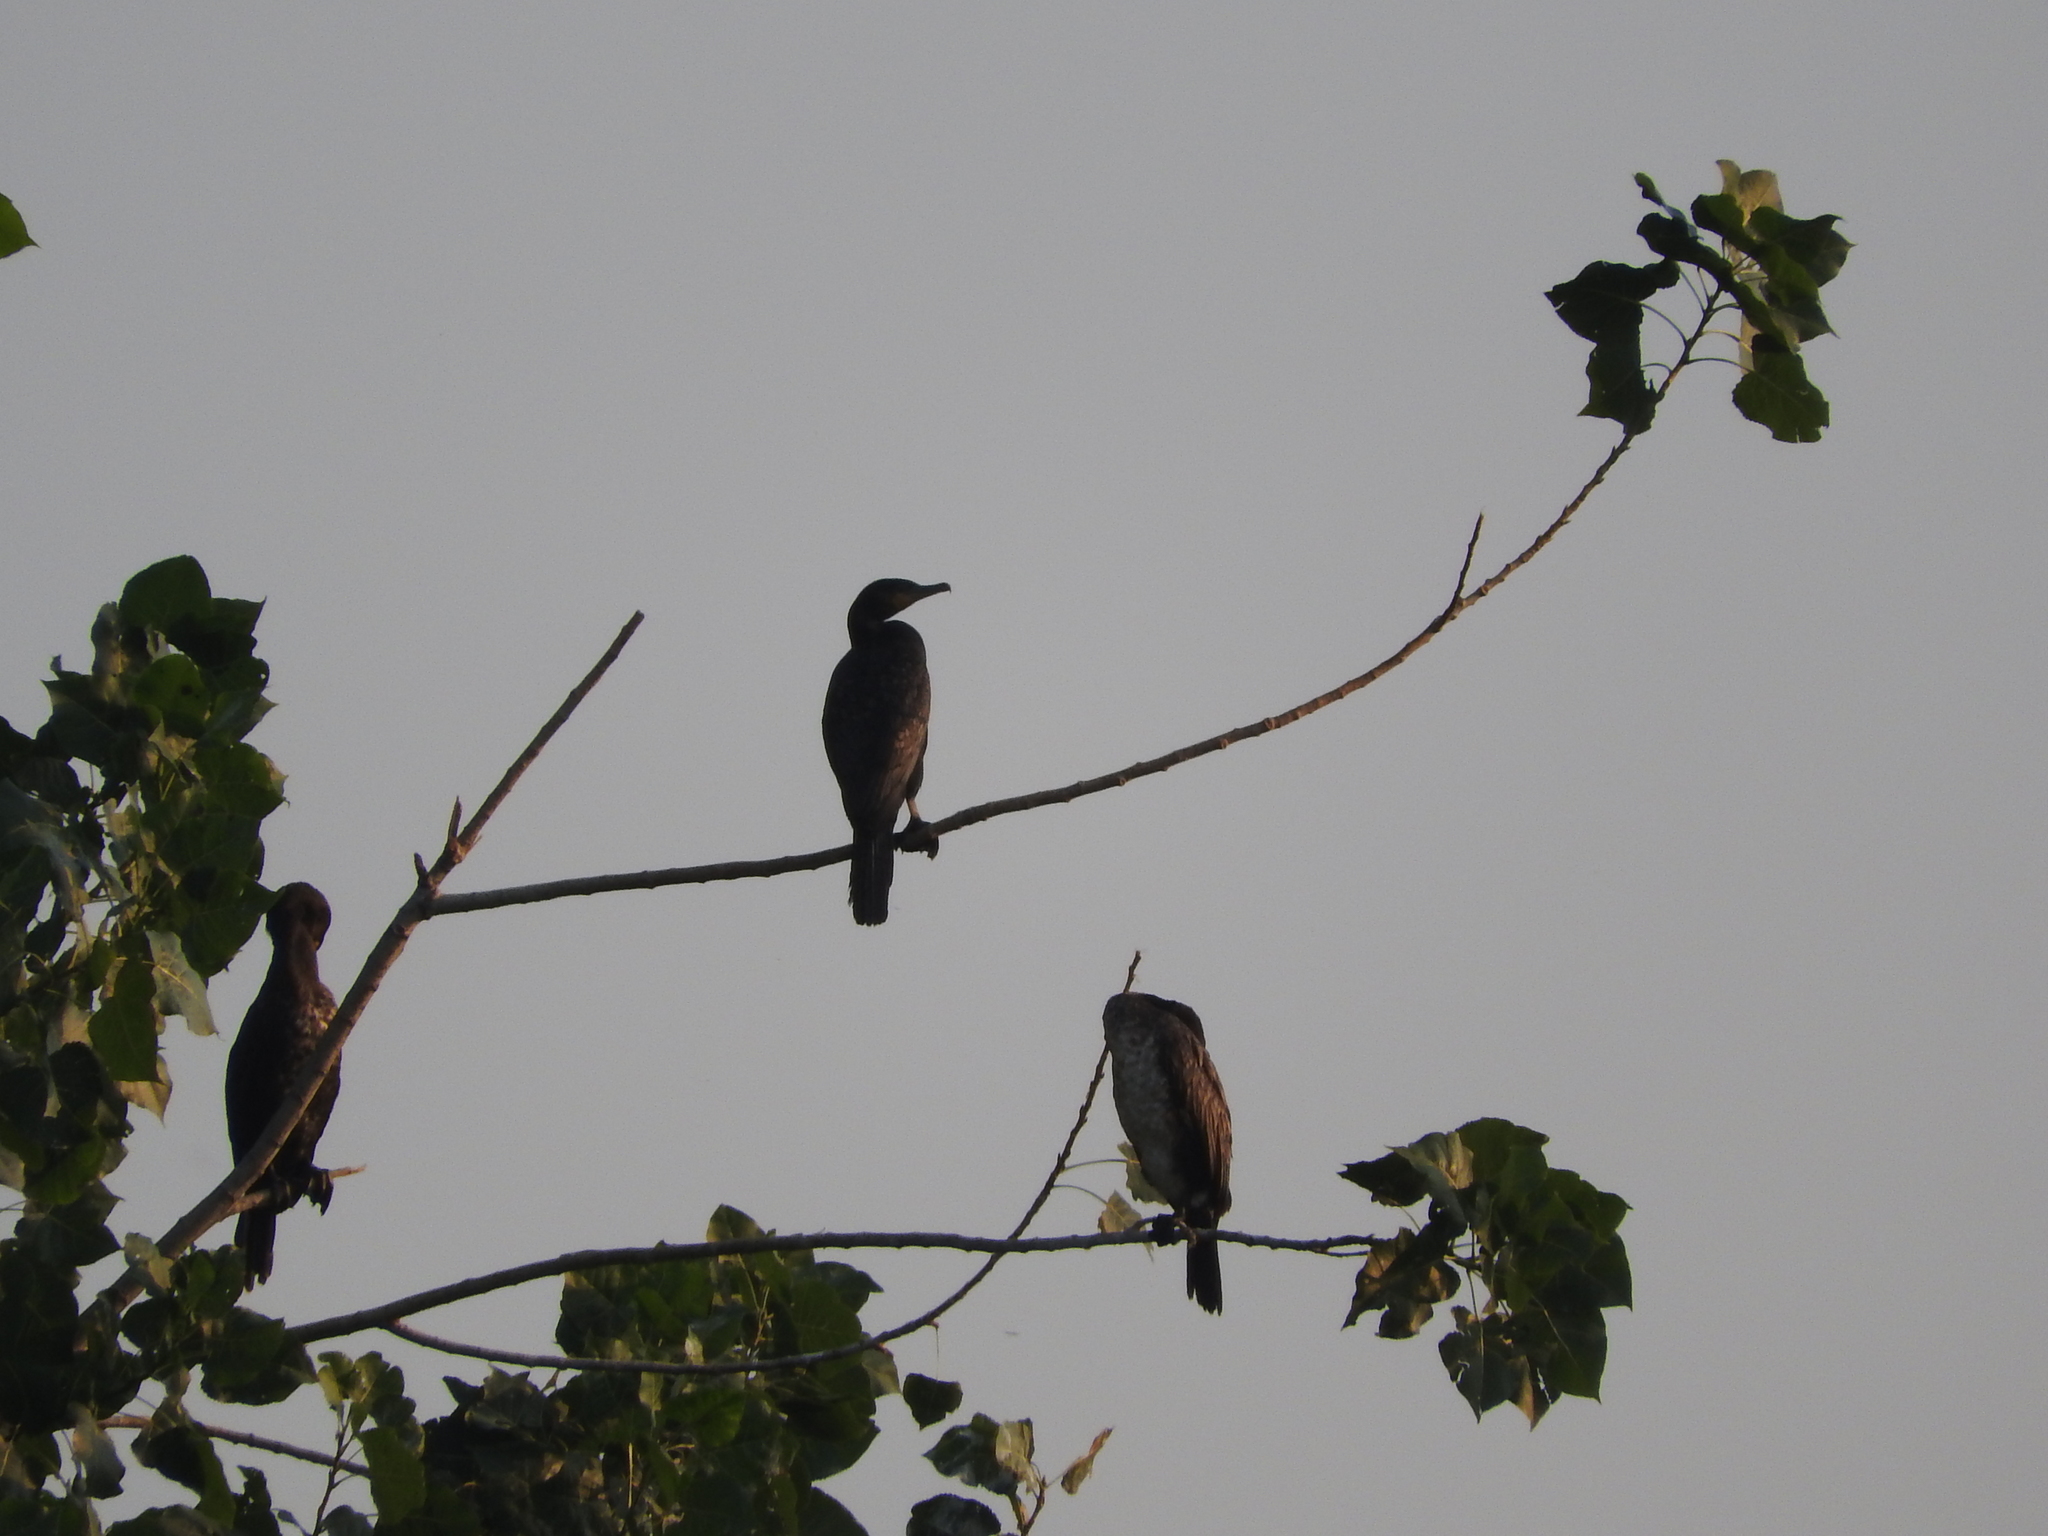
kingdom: Animalia
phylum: Chordata
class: Aves
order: Suliformes
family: Phalacrocoracidae
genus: Phalacrocorax
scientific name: Phalacrocorax carbo
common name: Great cormorant
